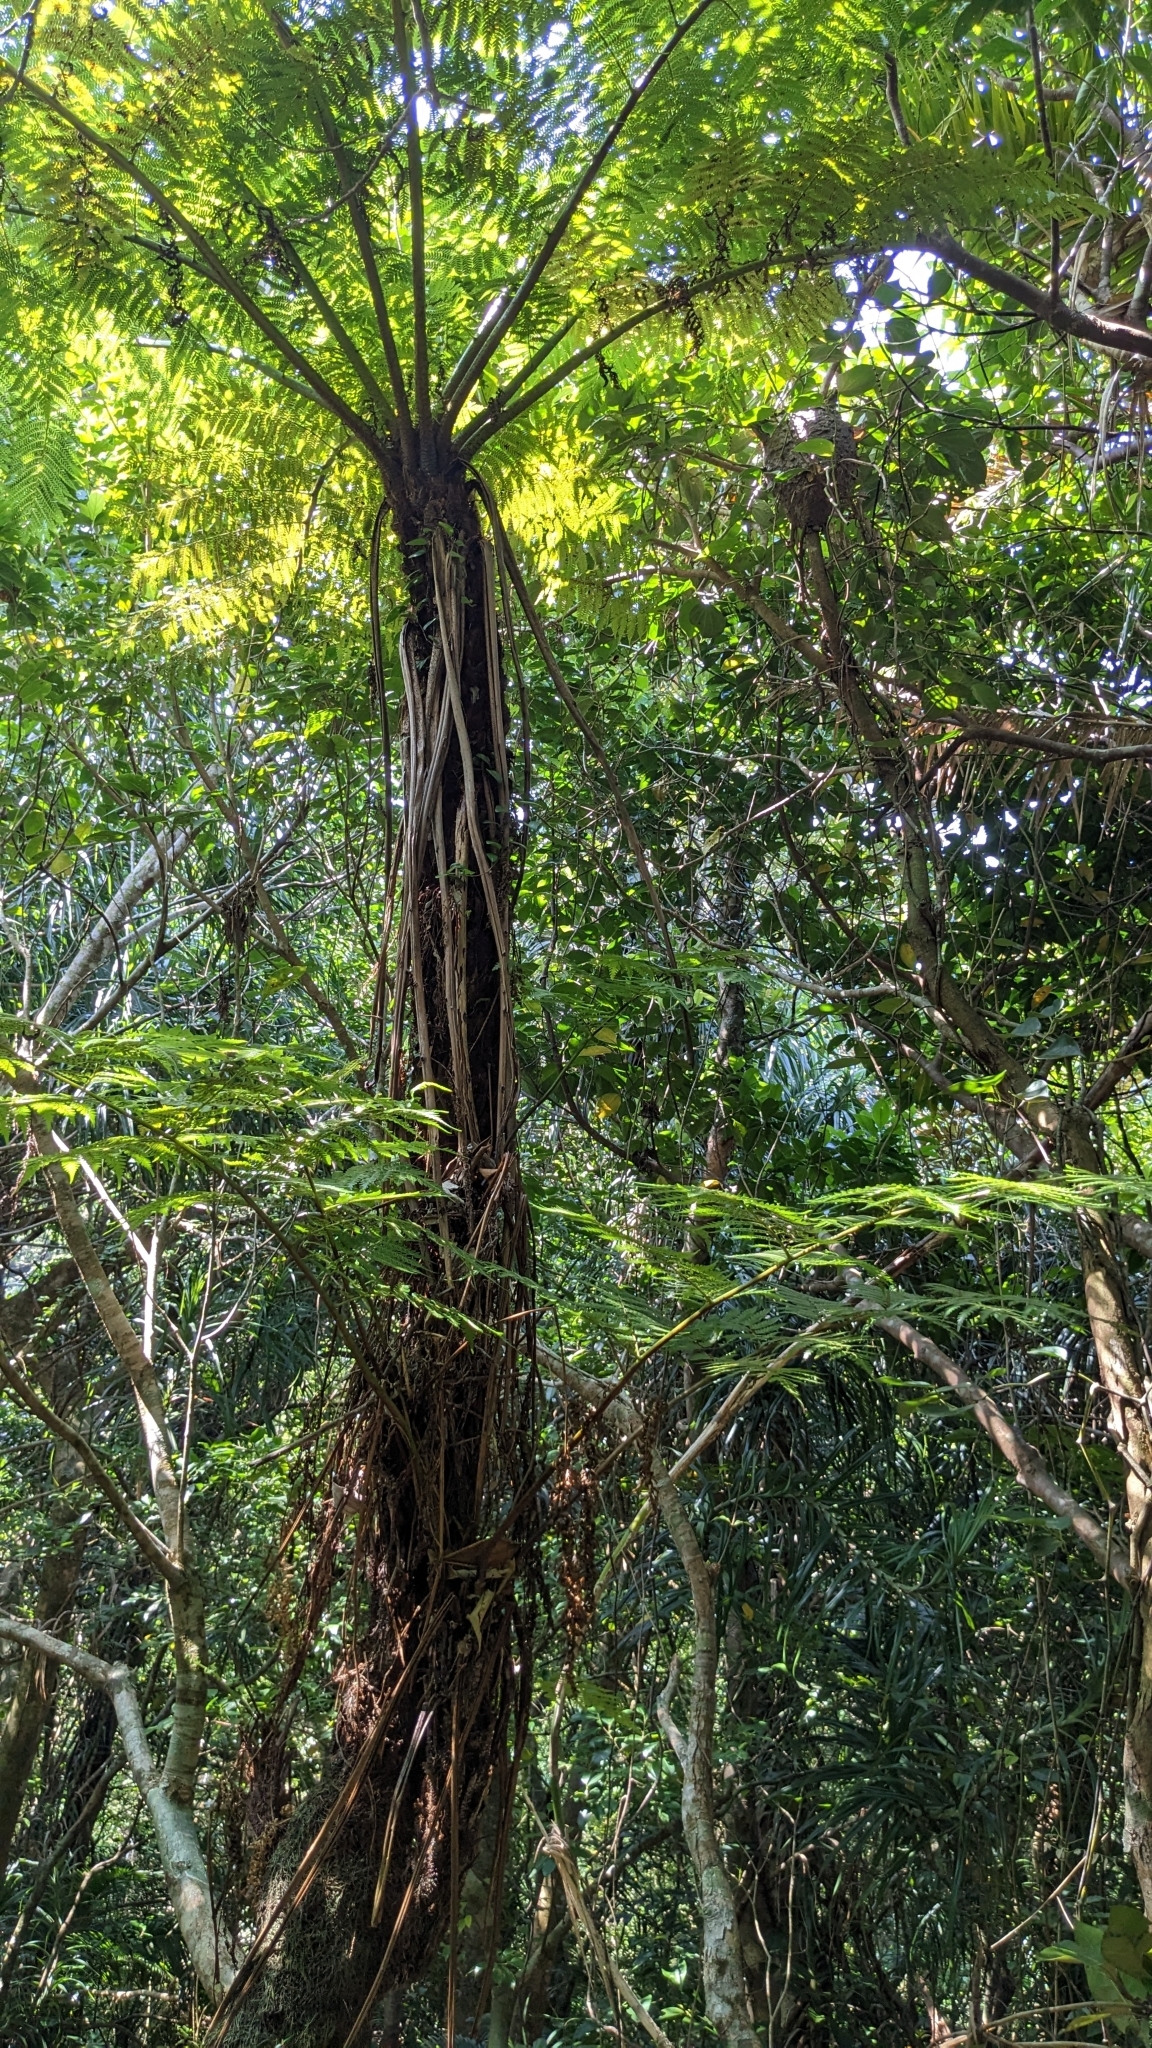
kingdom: Plantae
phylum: Tracheophyta
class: Polypodiopsida
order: Cyatheales
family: Cyatheaceae
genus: Alsophila
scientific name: Alsophila fenicis
